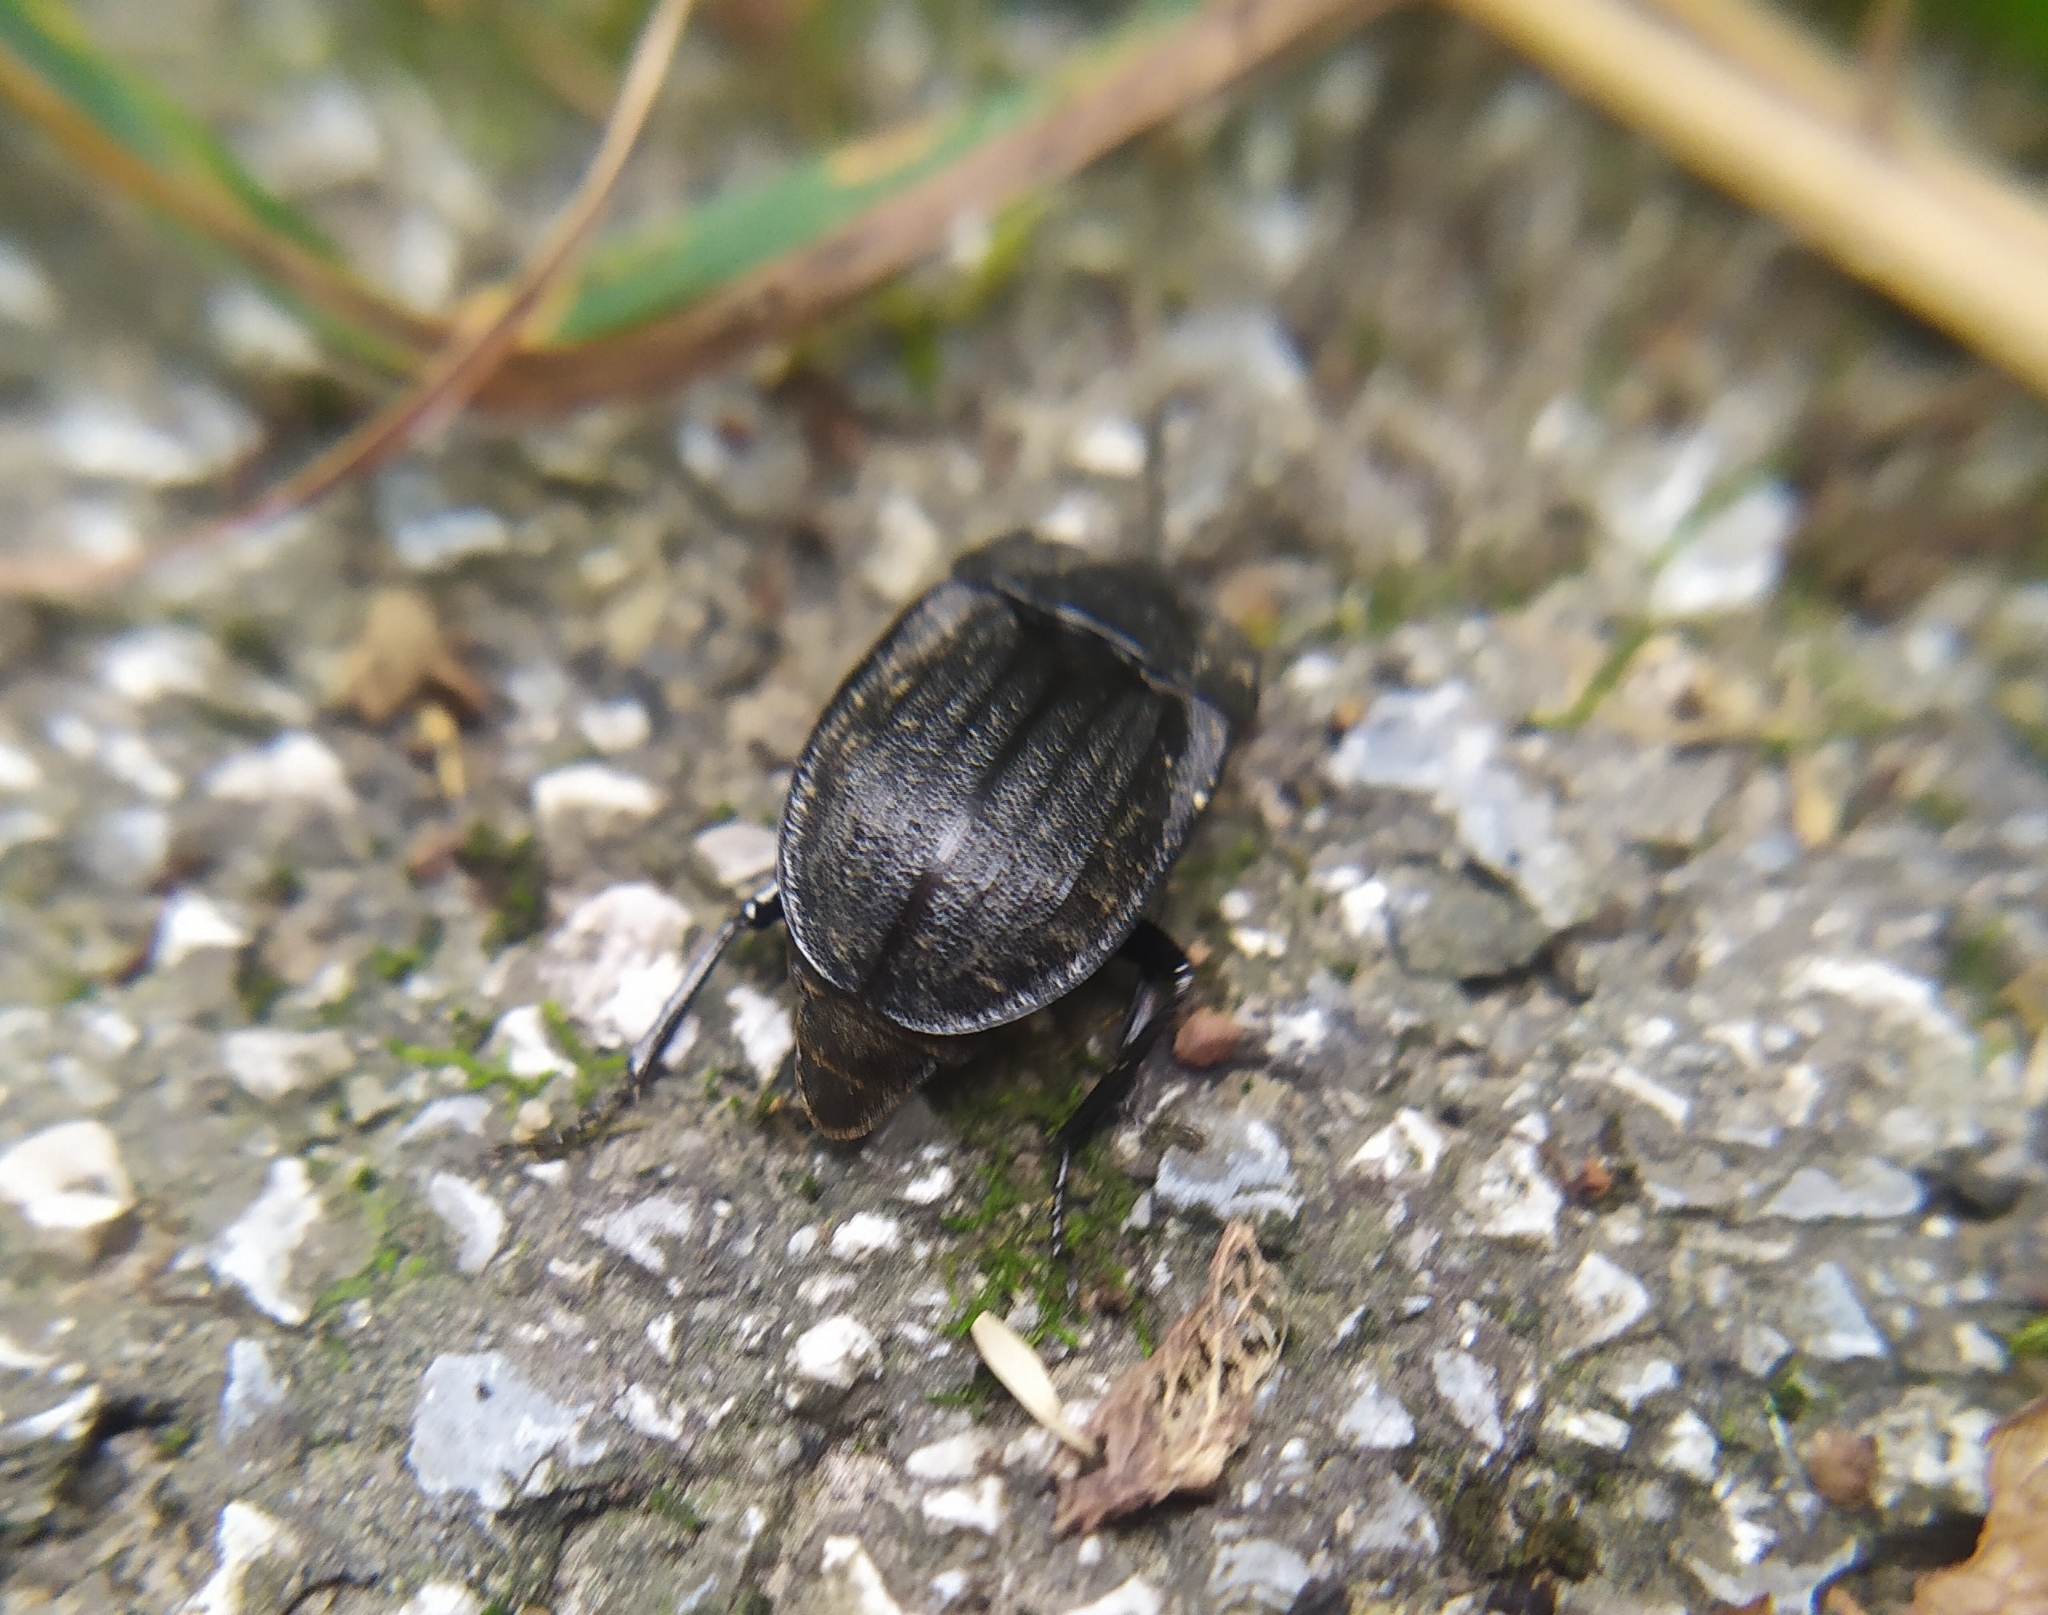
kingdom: Animalia
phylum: Arthropoda
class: Insecta
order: Coleoptera
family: Staphylinidae
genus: Silpha
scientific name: Silpha atrata
